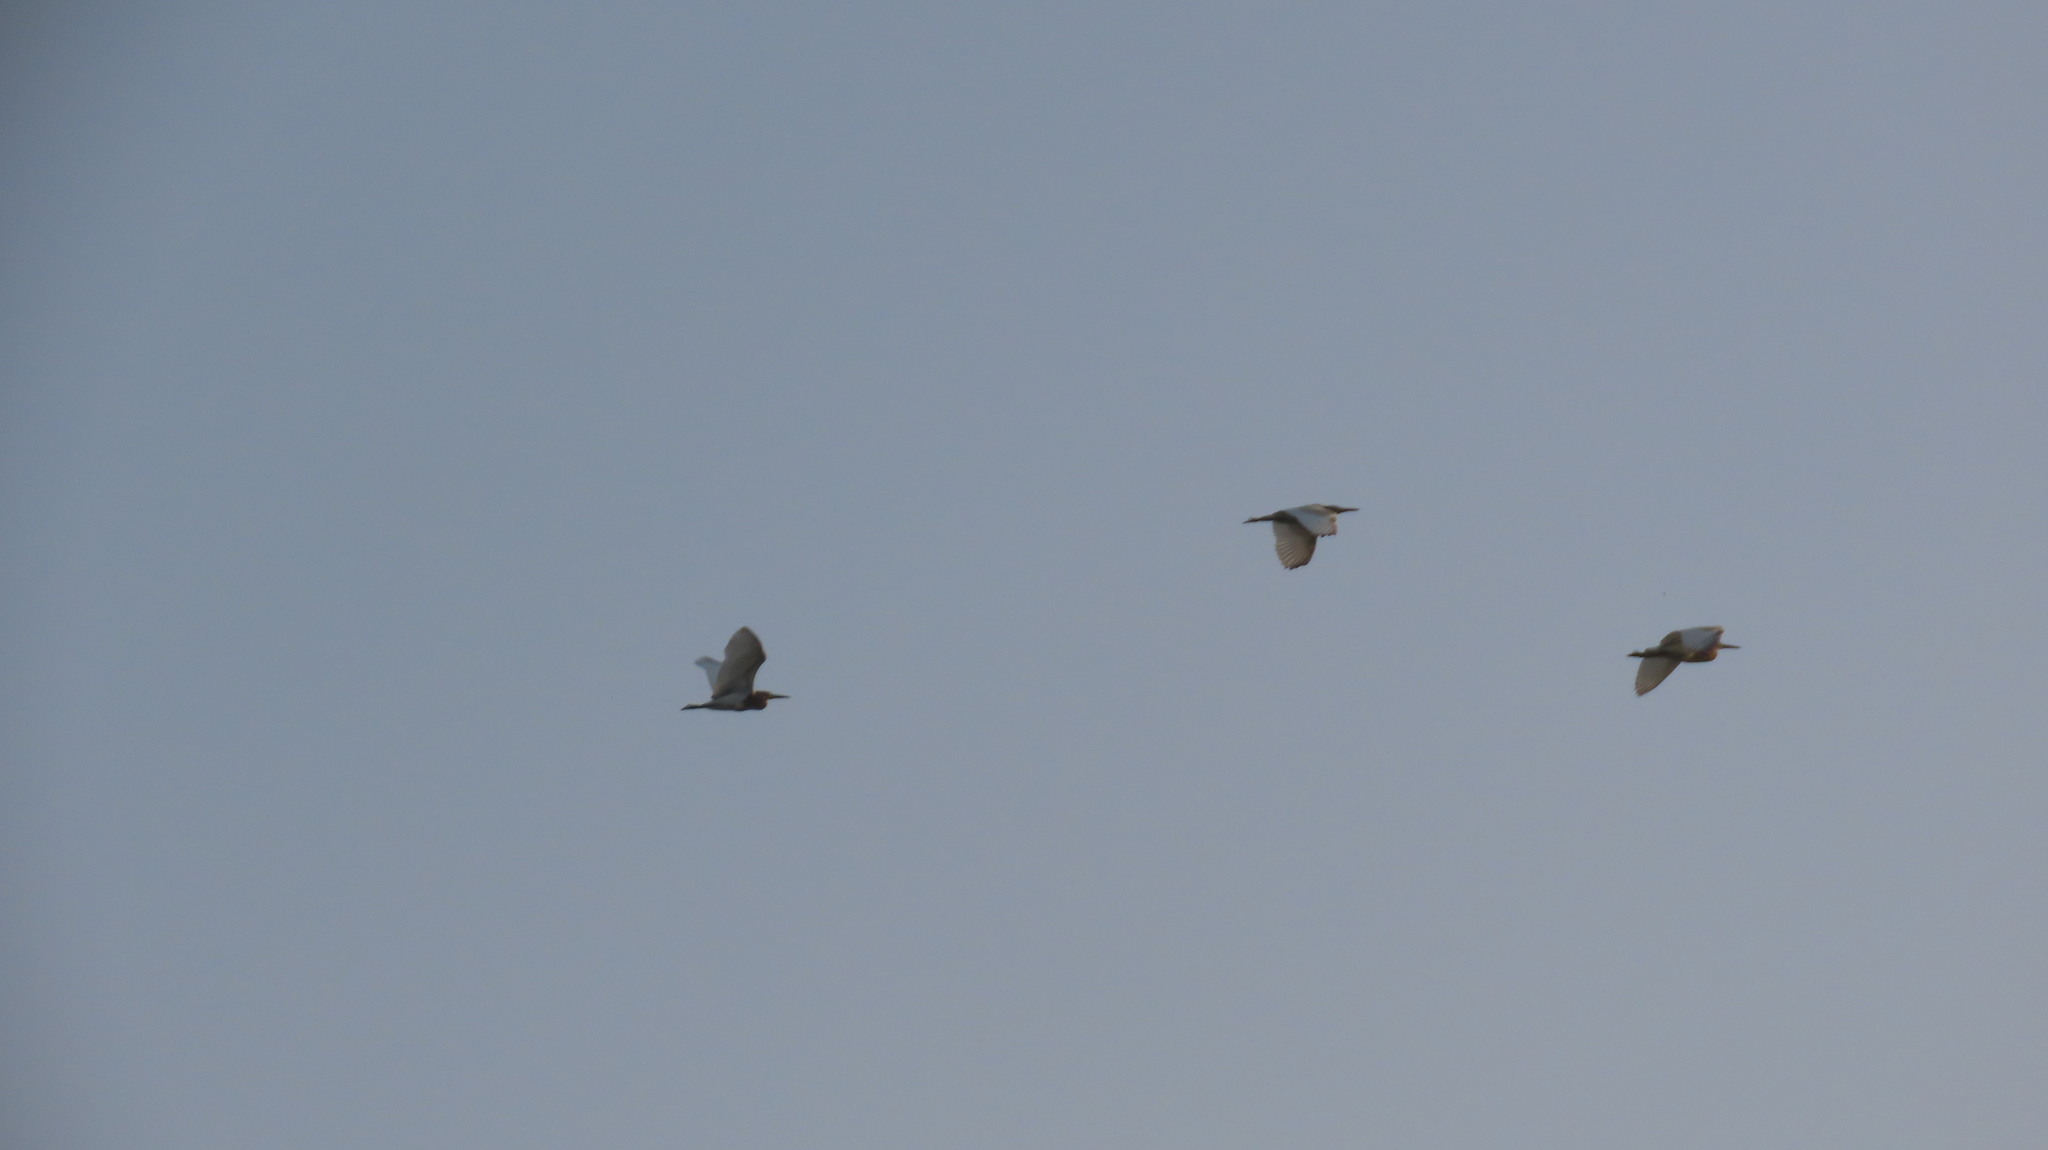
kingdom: Animalia
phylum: Chordata
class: Aves
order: Pelecaniformes
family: Ardeidae
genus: Ardeola
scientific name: Ardeola grayii
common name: Indian pond heron
